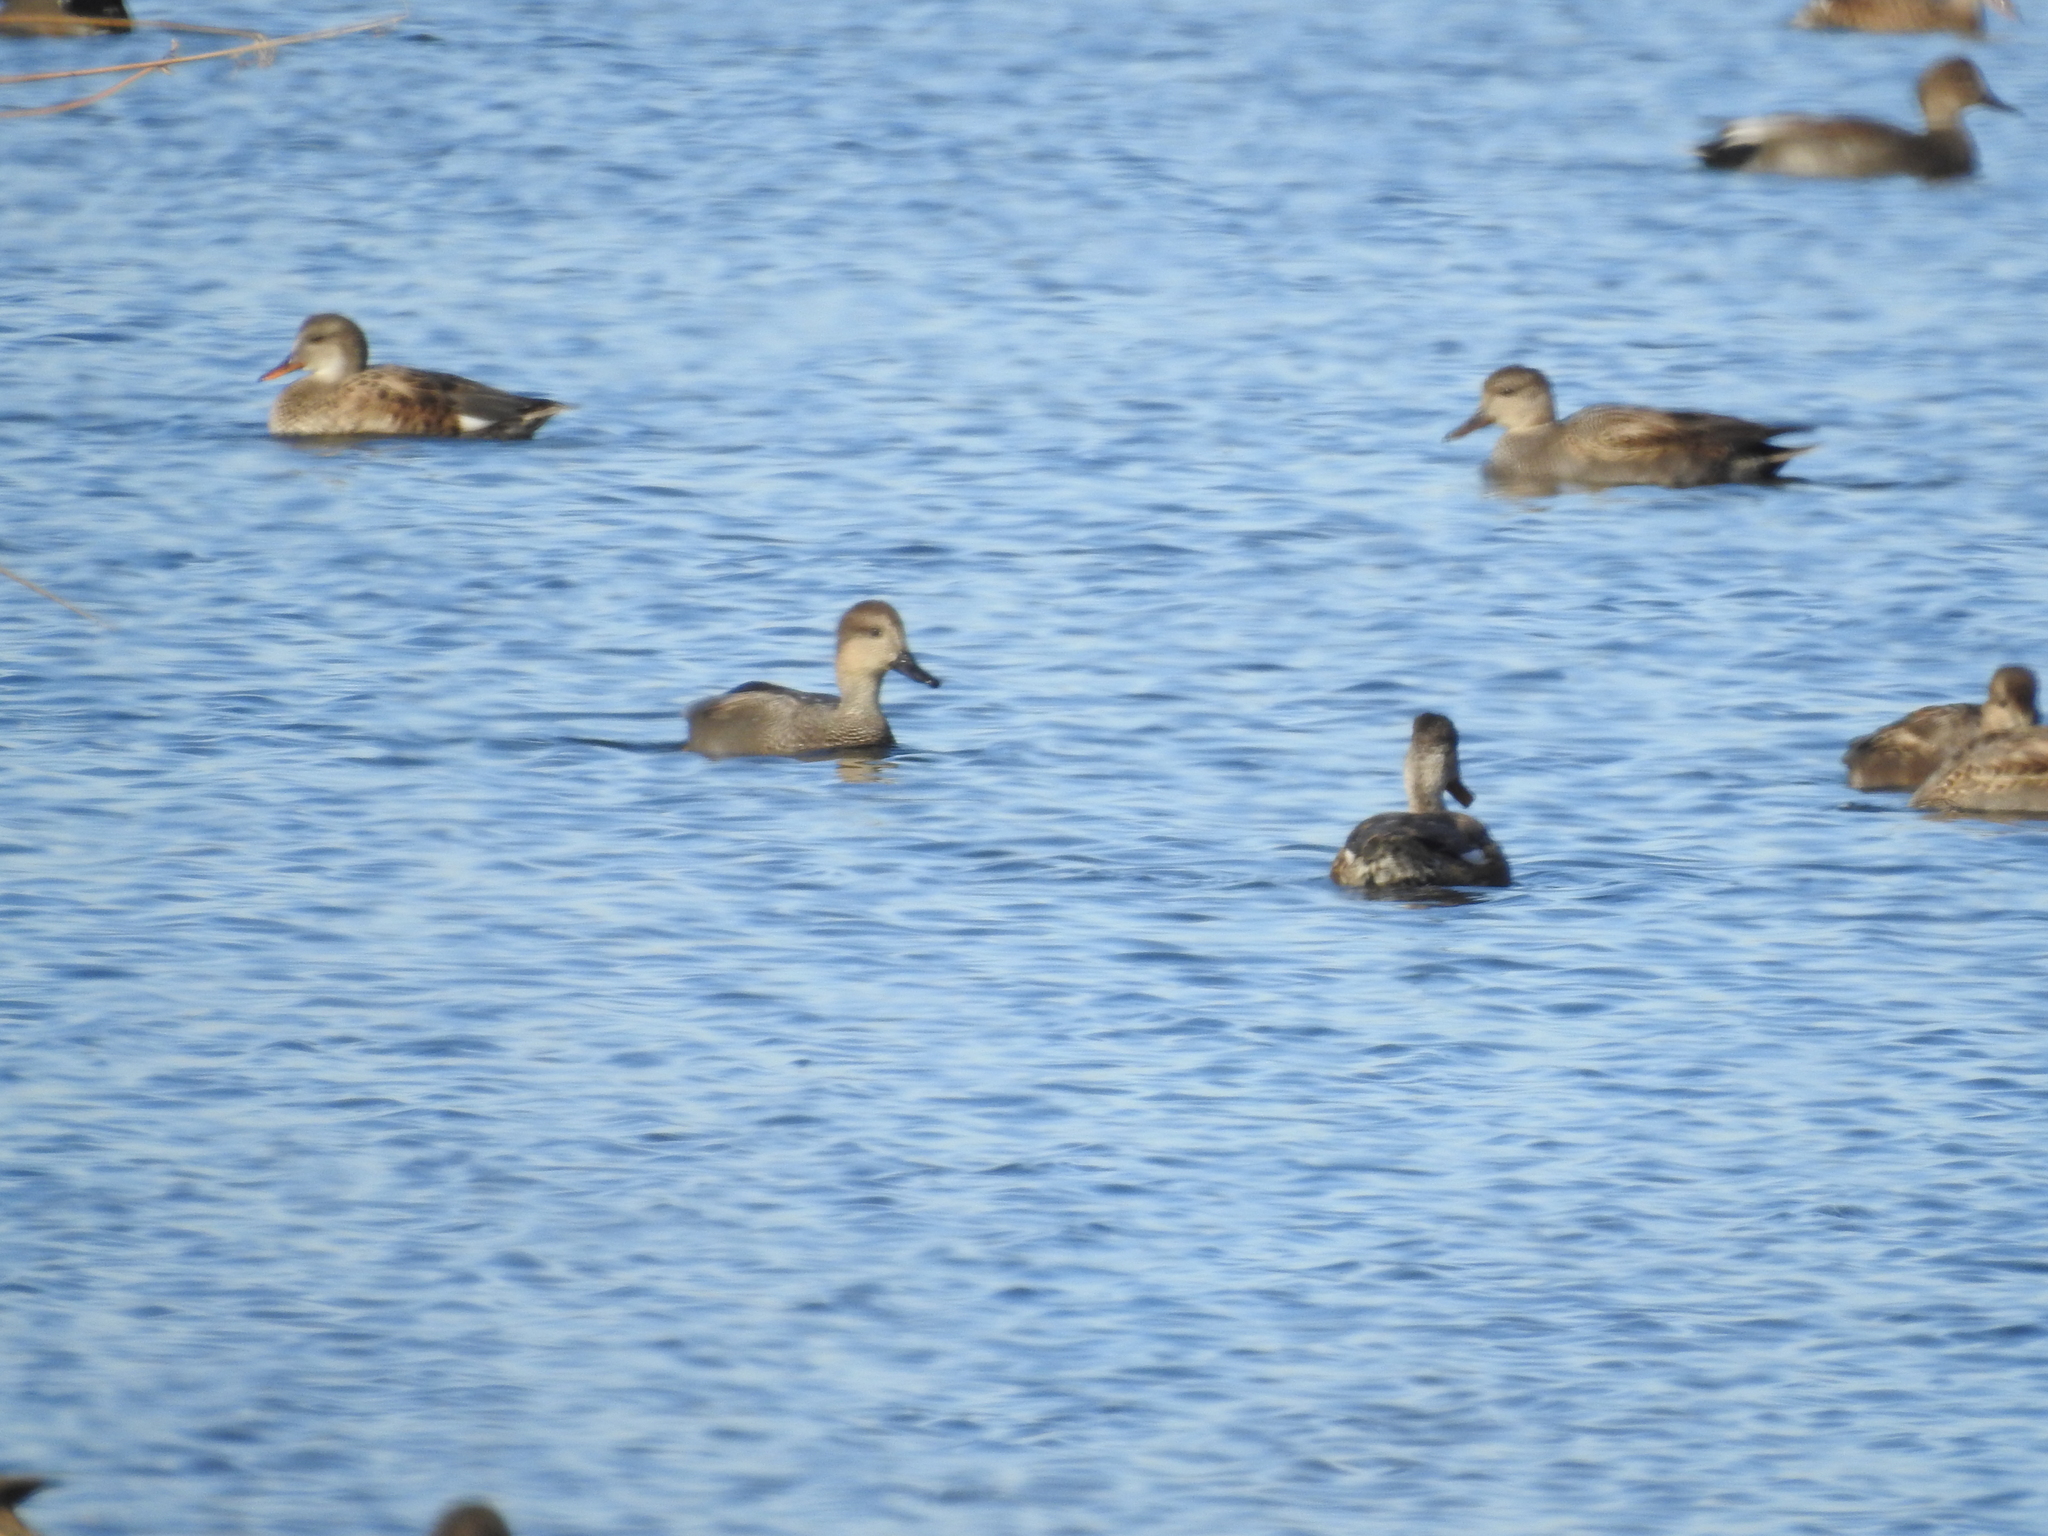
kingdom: Animalia
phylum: Chordata
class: Aves
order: Anseriformes
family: Anatidae
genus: Mareca
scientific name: Mareca strepera
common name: Gadwall
